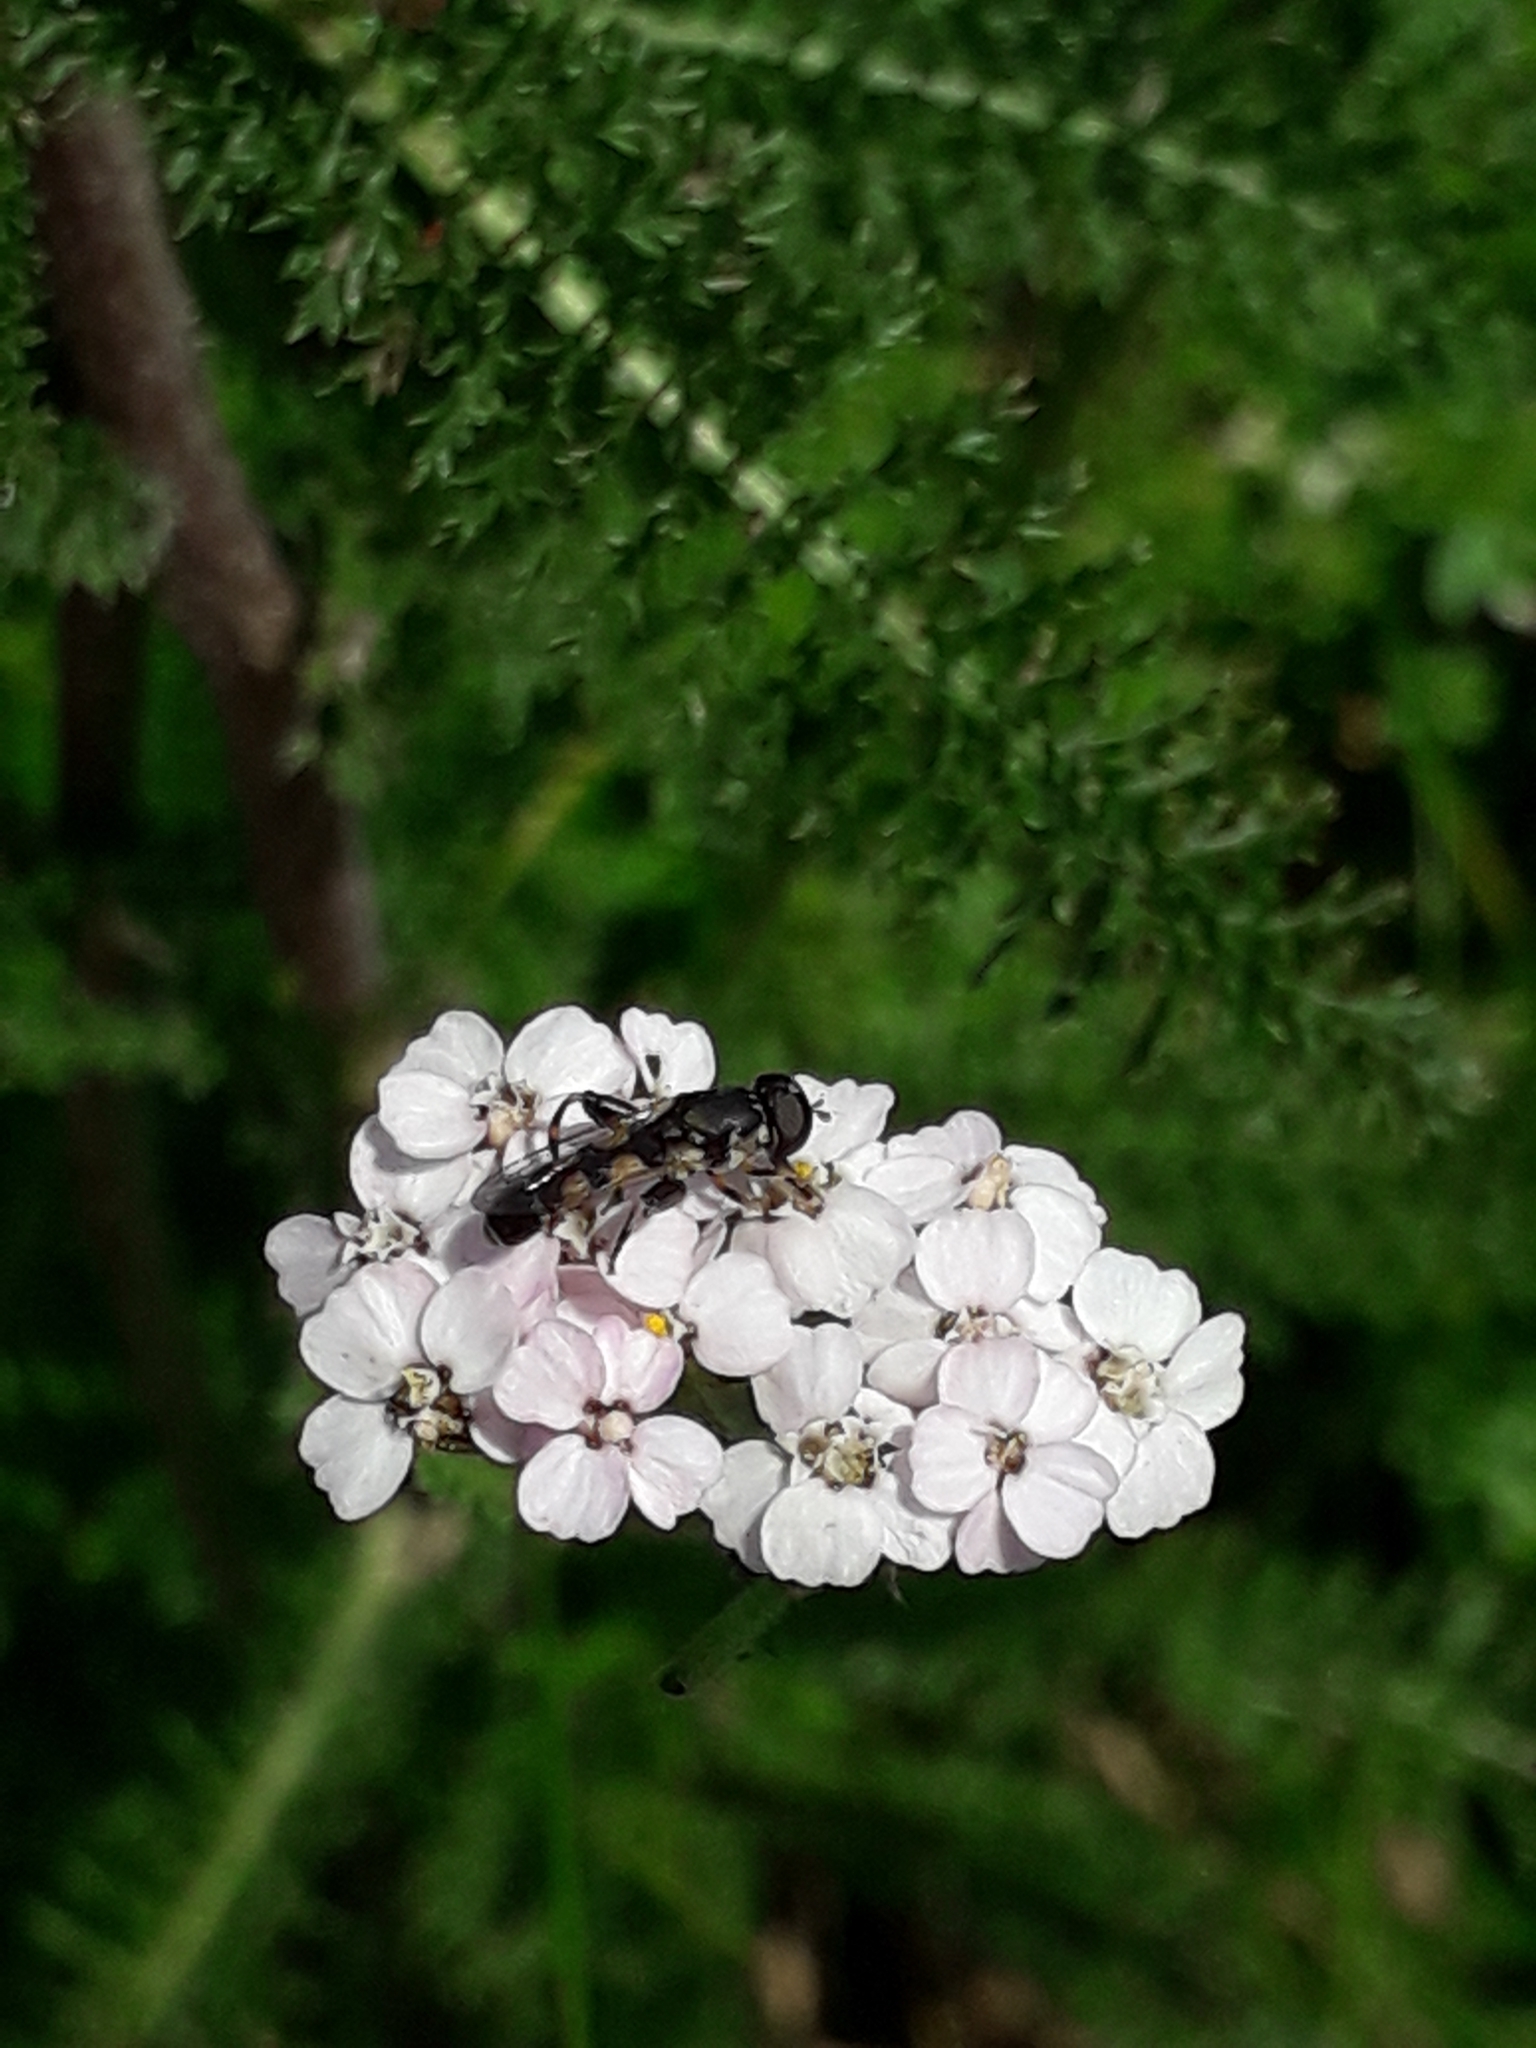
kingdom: Animalia
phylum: Arthropoda
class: Insecta
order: Diptera
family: Syrphidae
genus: Syritta
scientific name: Syritta pipiens
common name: Hover fly
